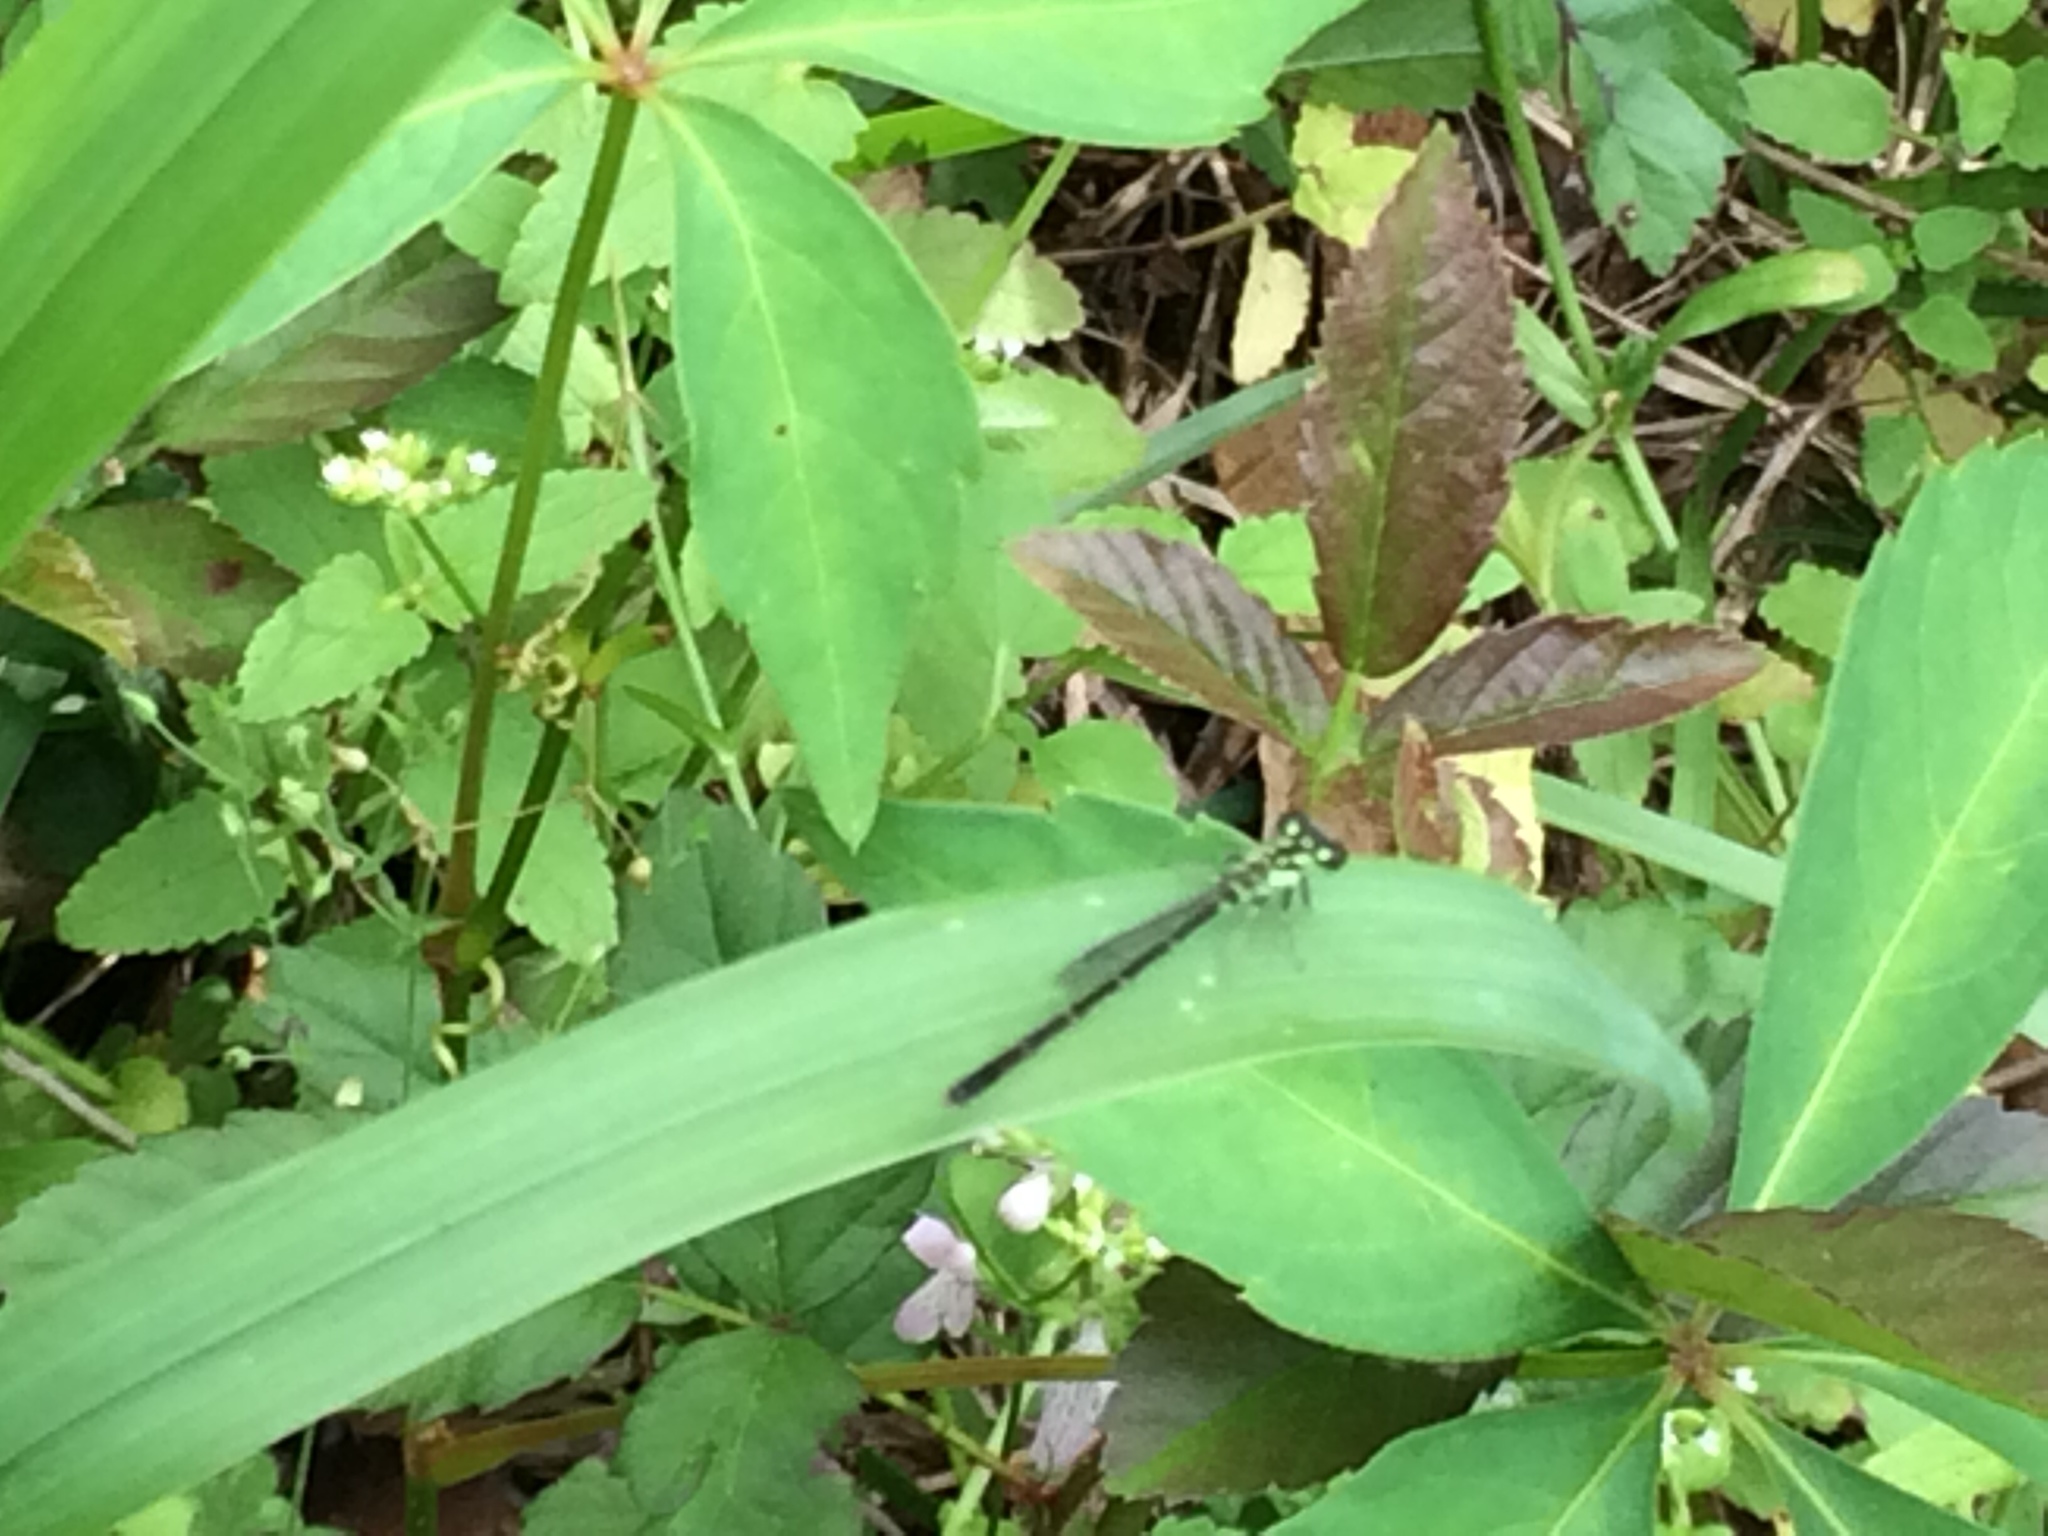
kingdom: Animalia
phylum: Arthropoda
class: Insecta
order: Odonata
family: Coenagrionidae
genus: Ischnura
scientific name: Ischnura posita
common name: Fragile forktail
